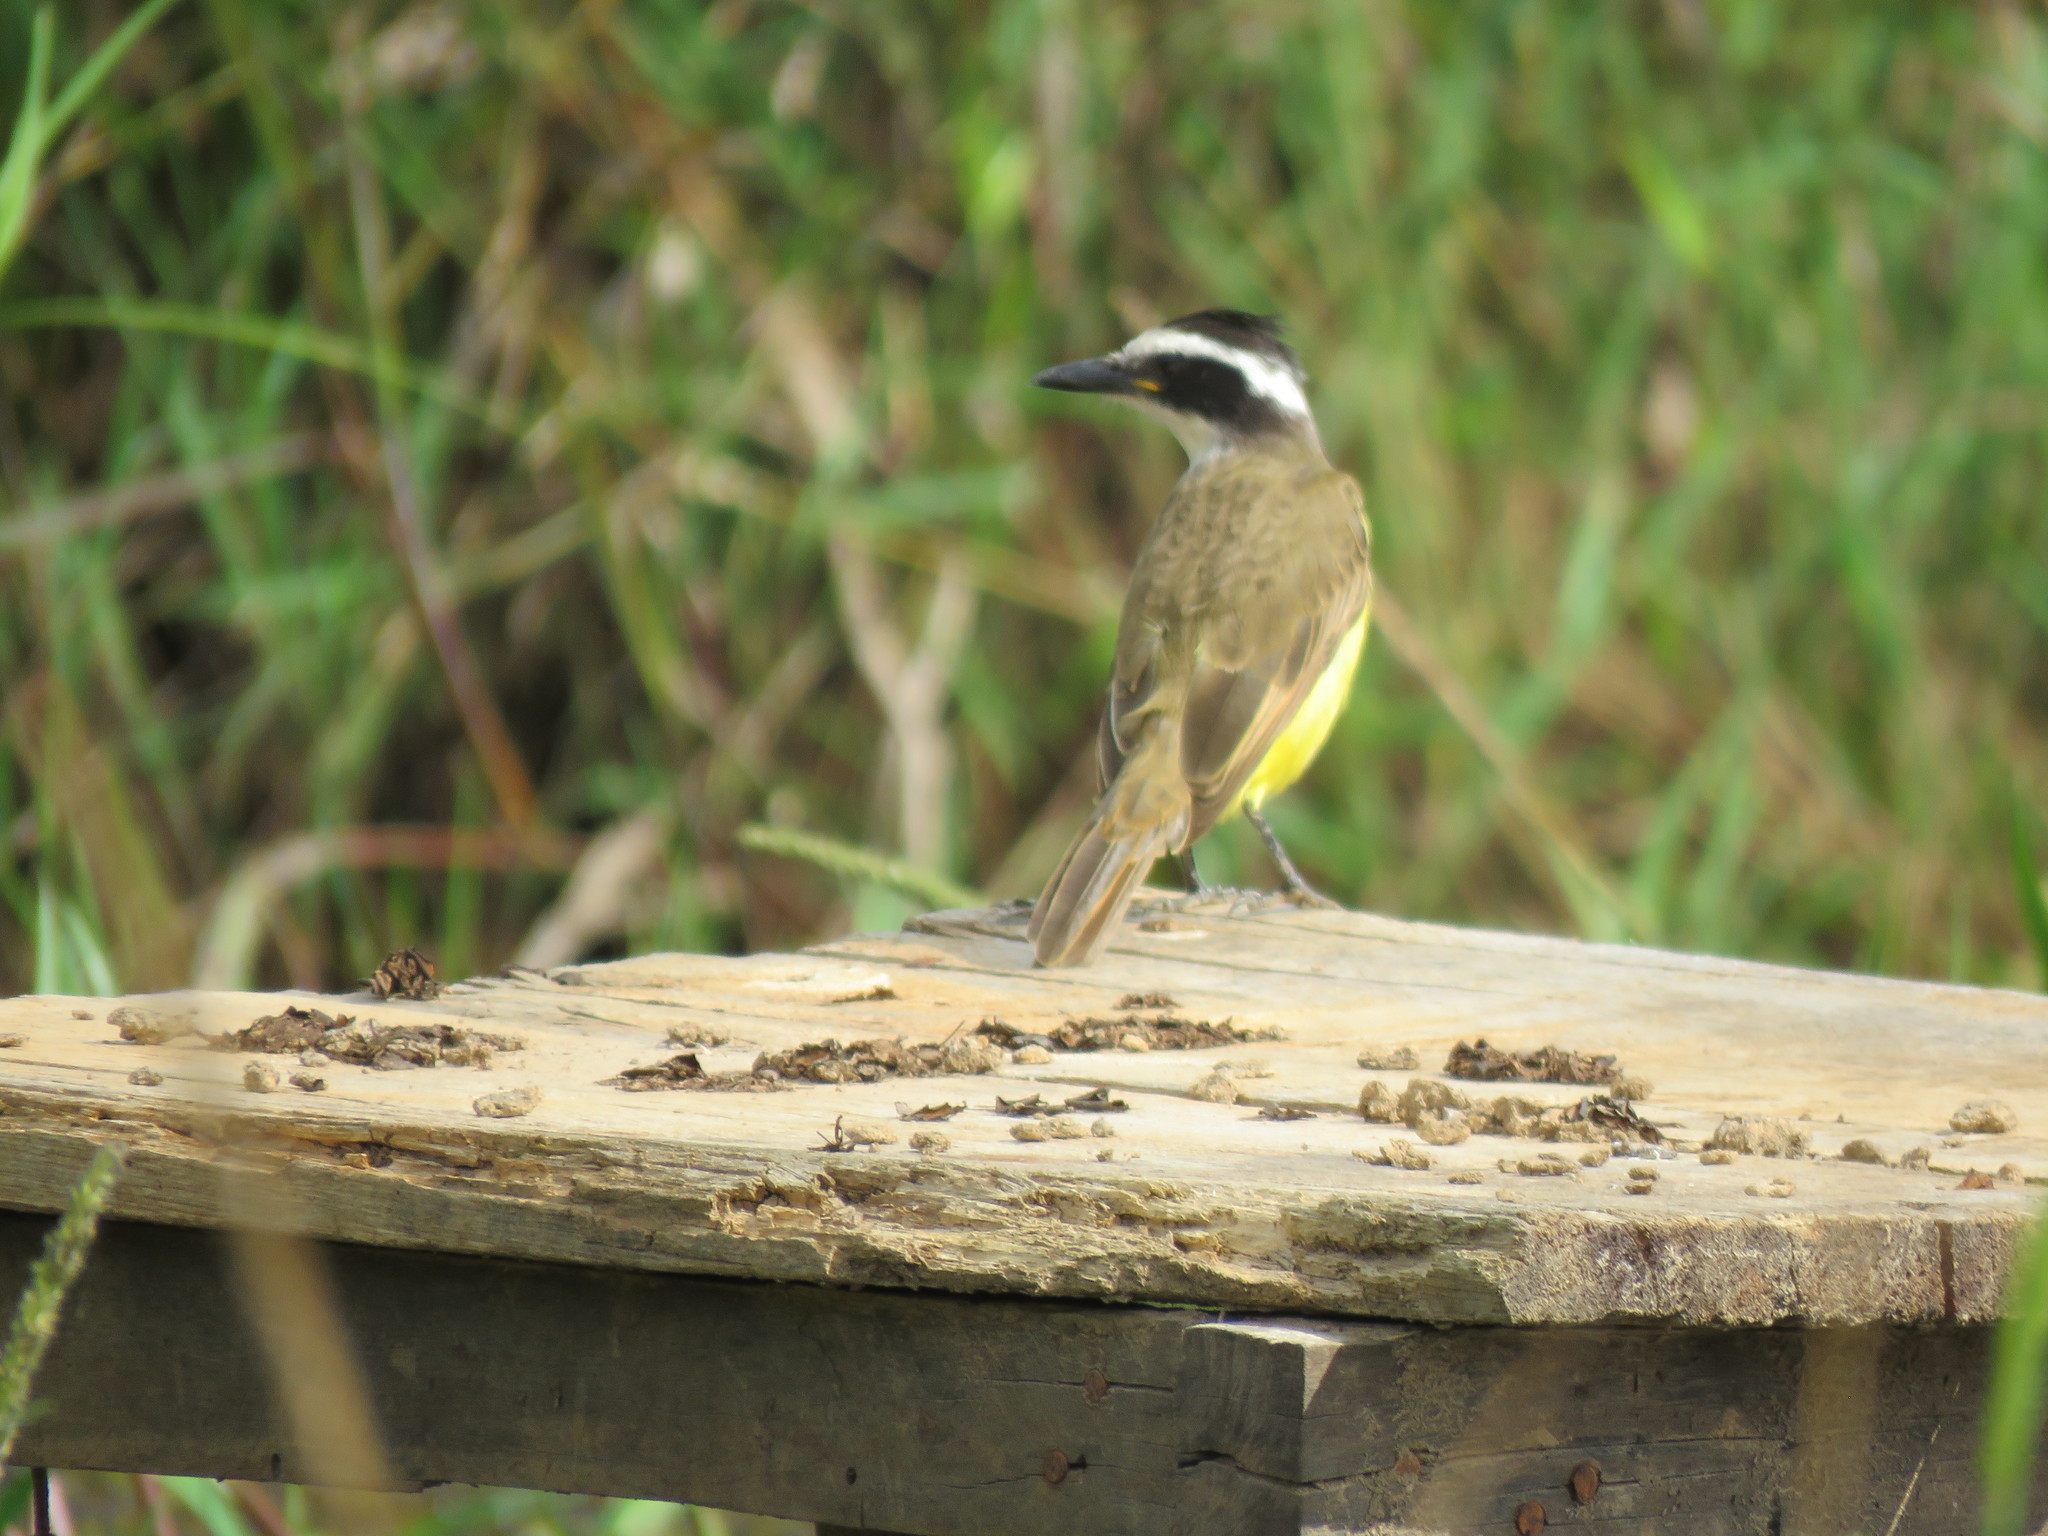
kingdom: Animalia
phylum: Chordata
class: Aves
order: Passeriformes
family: Tyrannidae
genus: Pitangus
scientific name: Pitangus sulphuratus
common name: Great kiskadee
